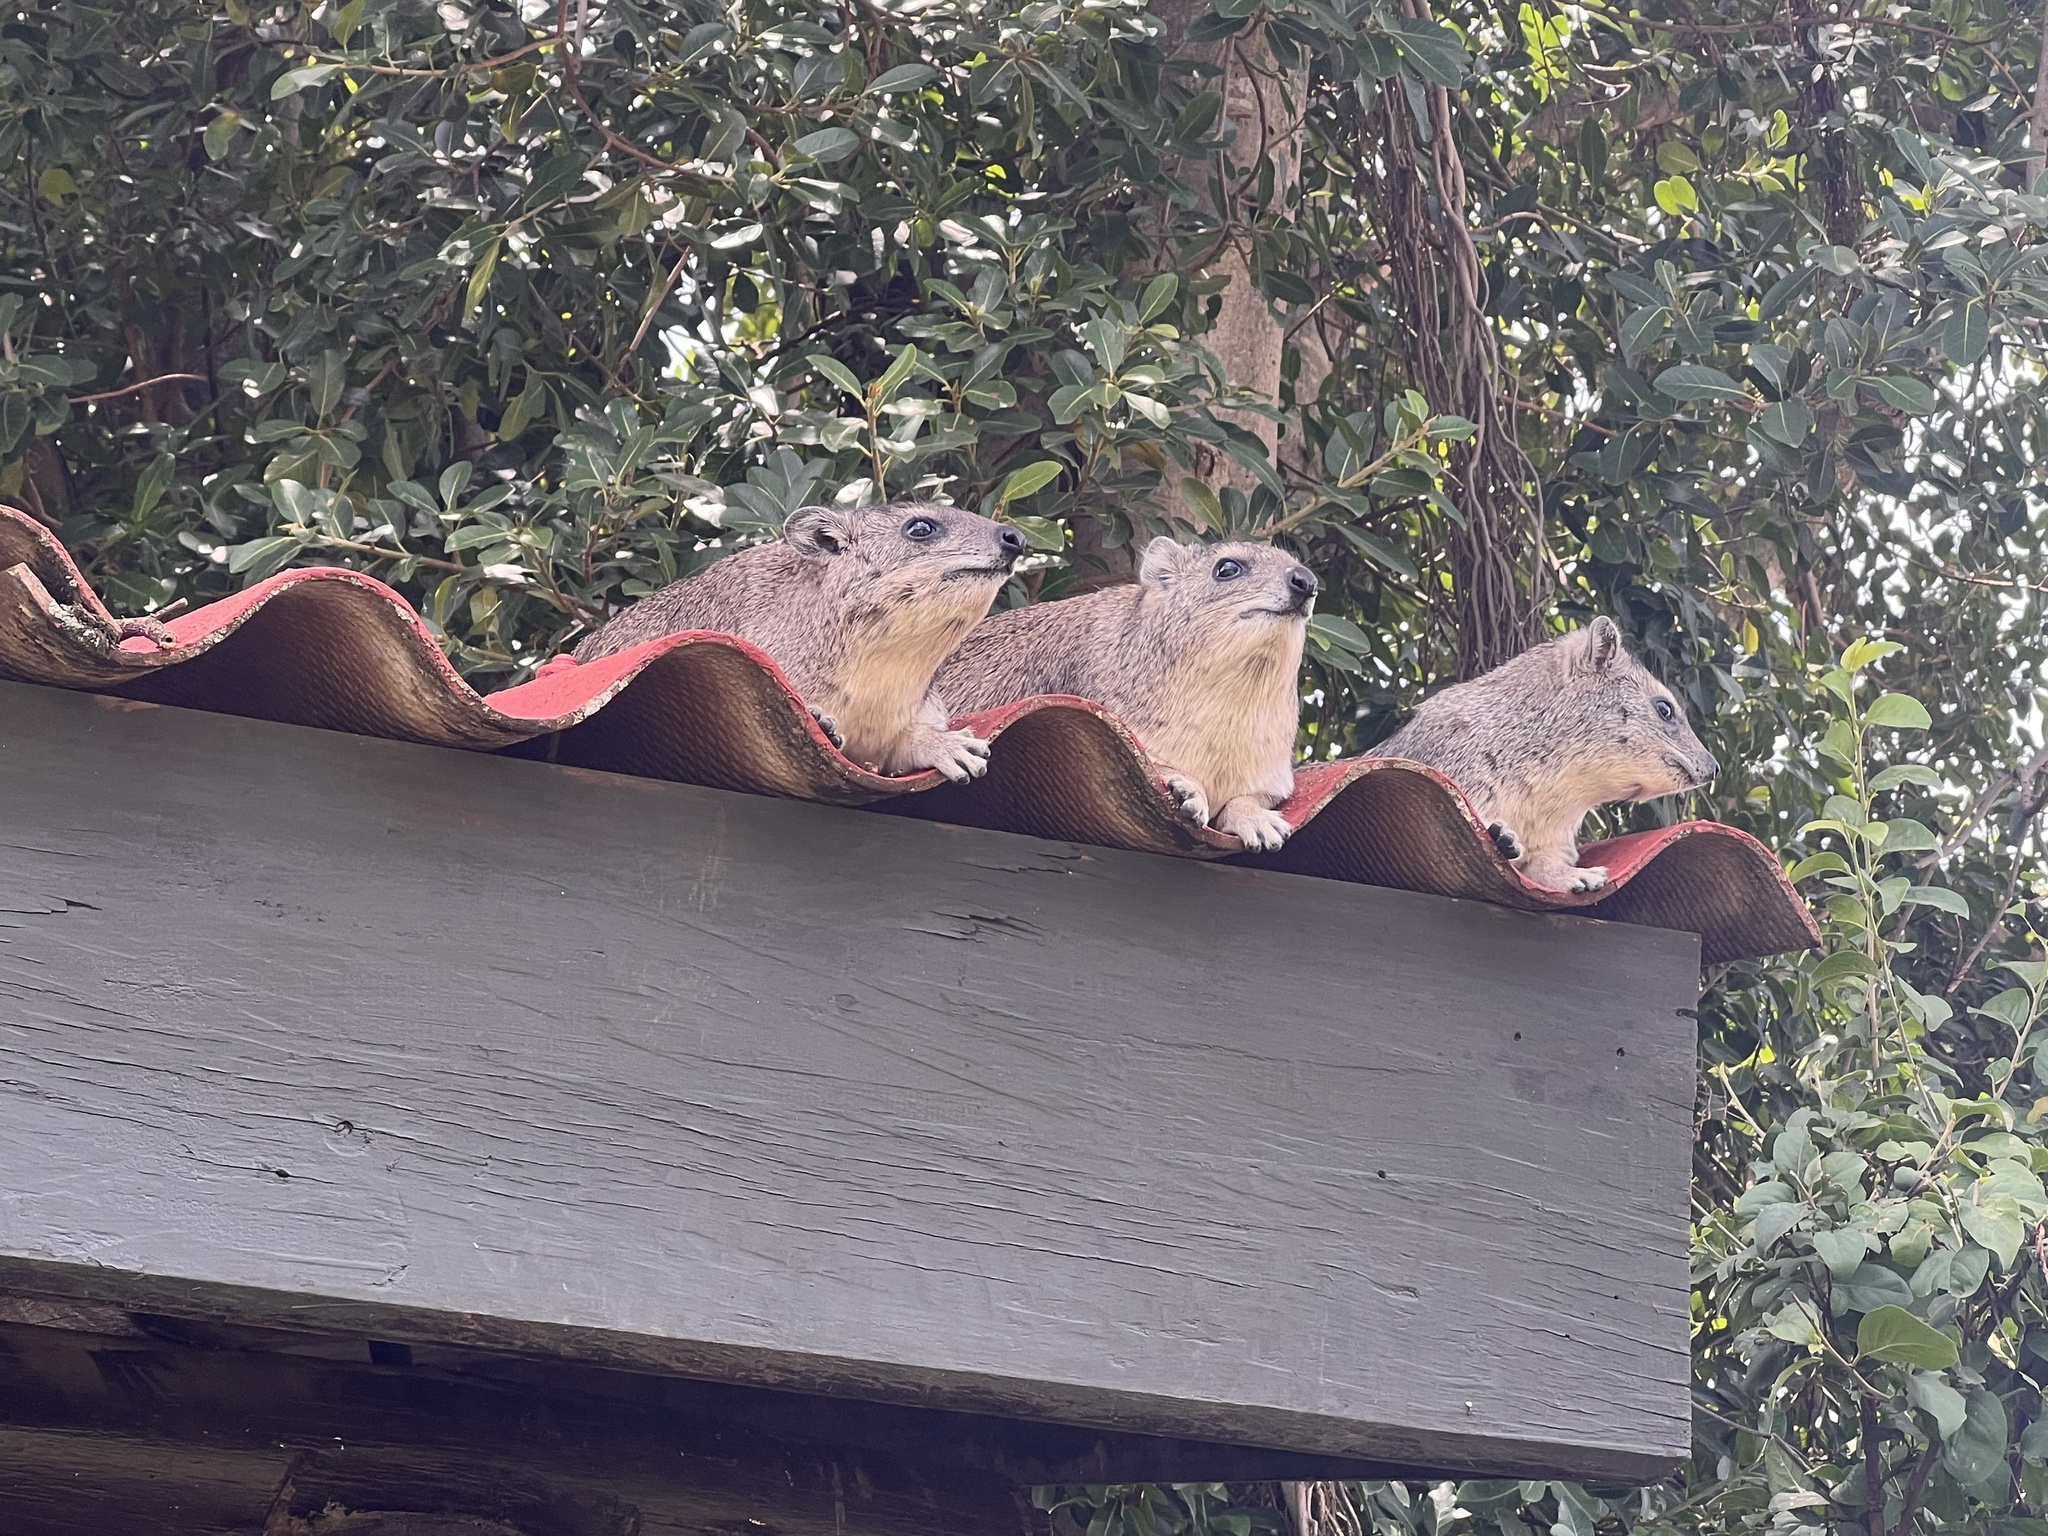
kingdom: Animalia
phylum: Chordata
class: Mammalia
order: Hyracoidea
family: Procaviidae
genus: Heterohyrax
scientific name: Heterohyrax brucei
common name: Bush hyrax
